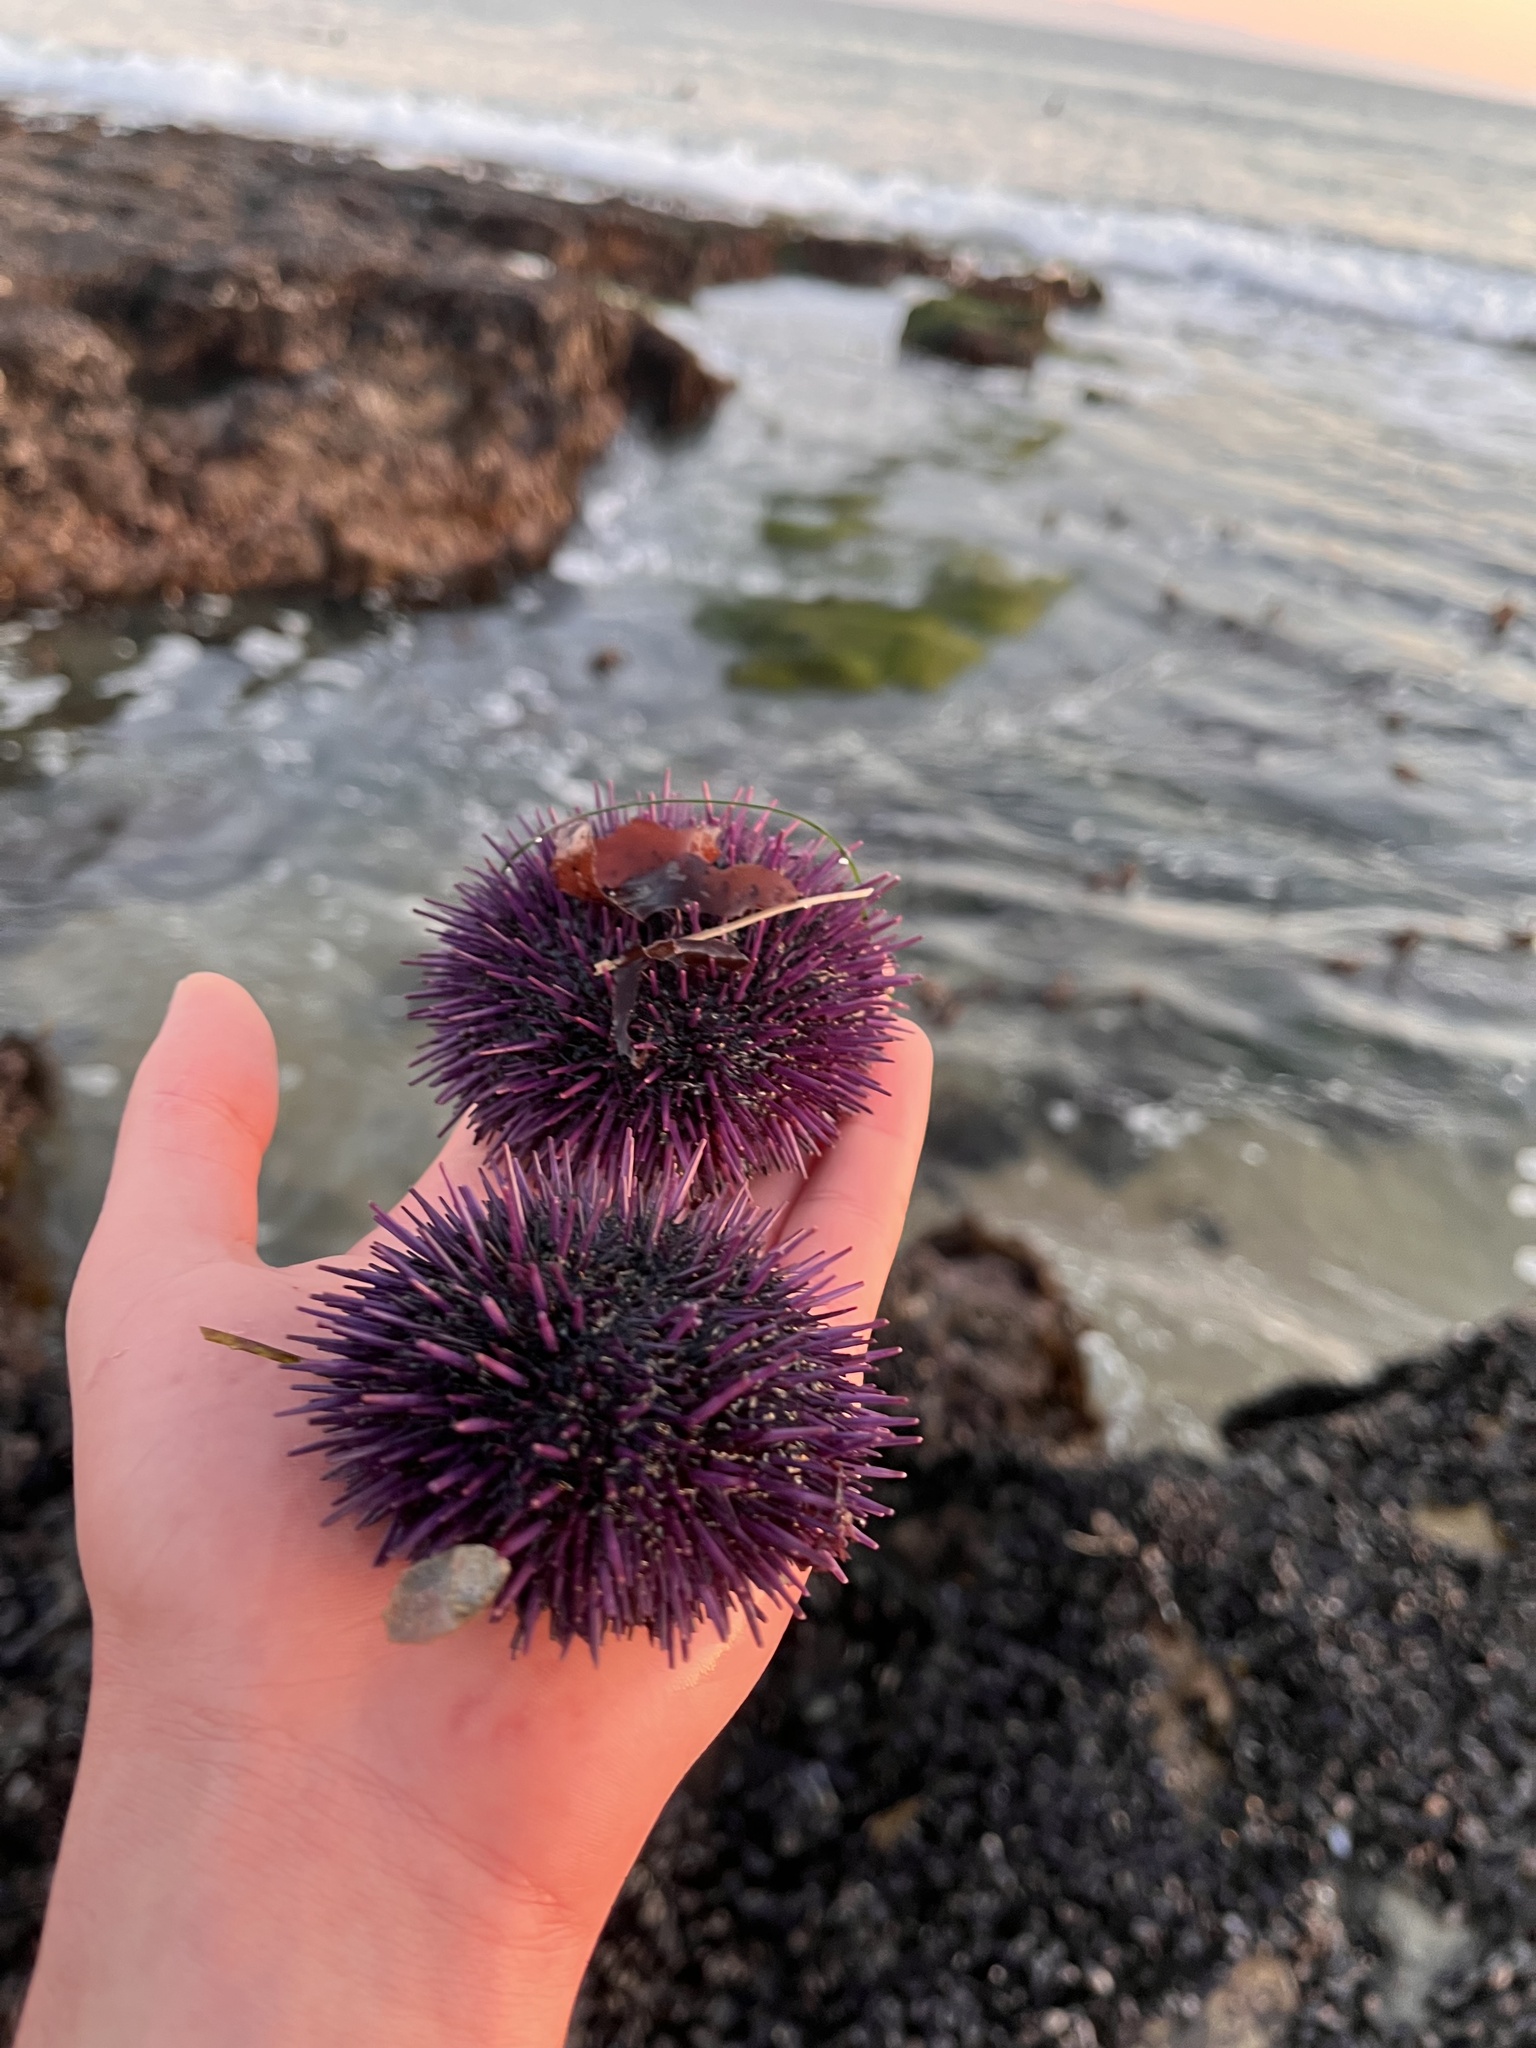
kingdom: Animalia
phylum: Echinodermata
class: Echinoidea
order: Camarodonta
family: Strongylocentrotidae
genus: Strongylocentrotus
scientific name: Strongylocentrotus purpuratus
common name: Purple sea urchin
